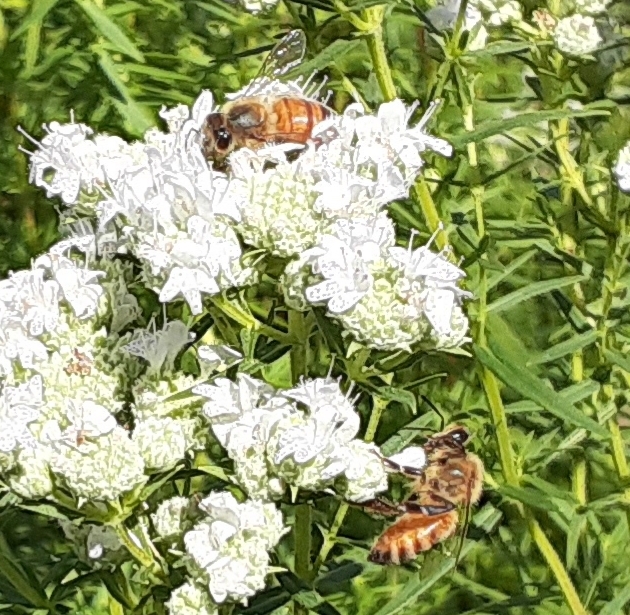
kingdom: Animalia
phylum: Arthropoda
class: Insecta
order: Hymenoptera
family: Apidae
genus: Apis
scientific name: Apis mellifera
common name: Honey bee
